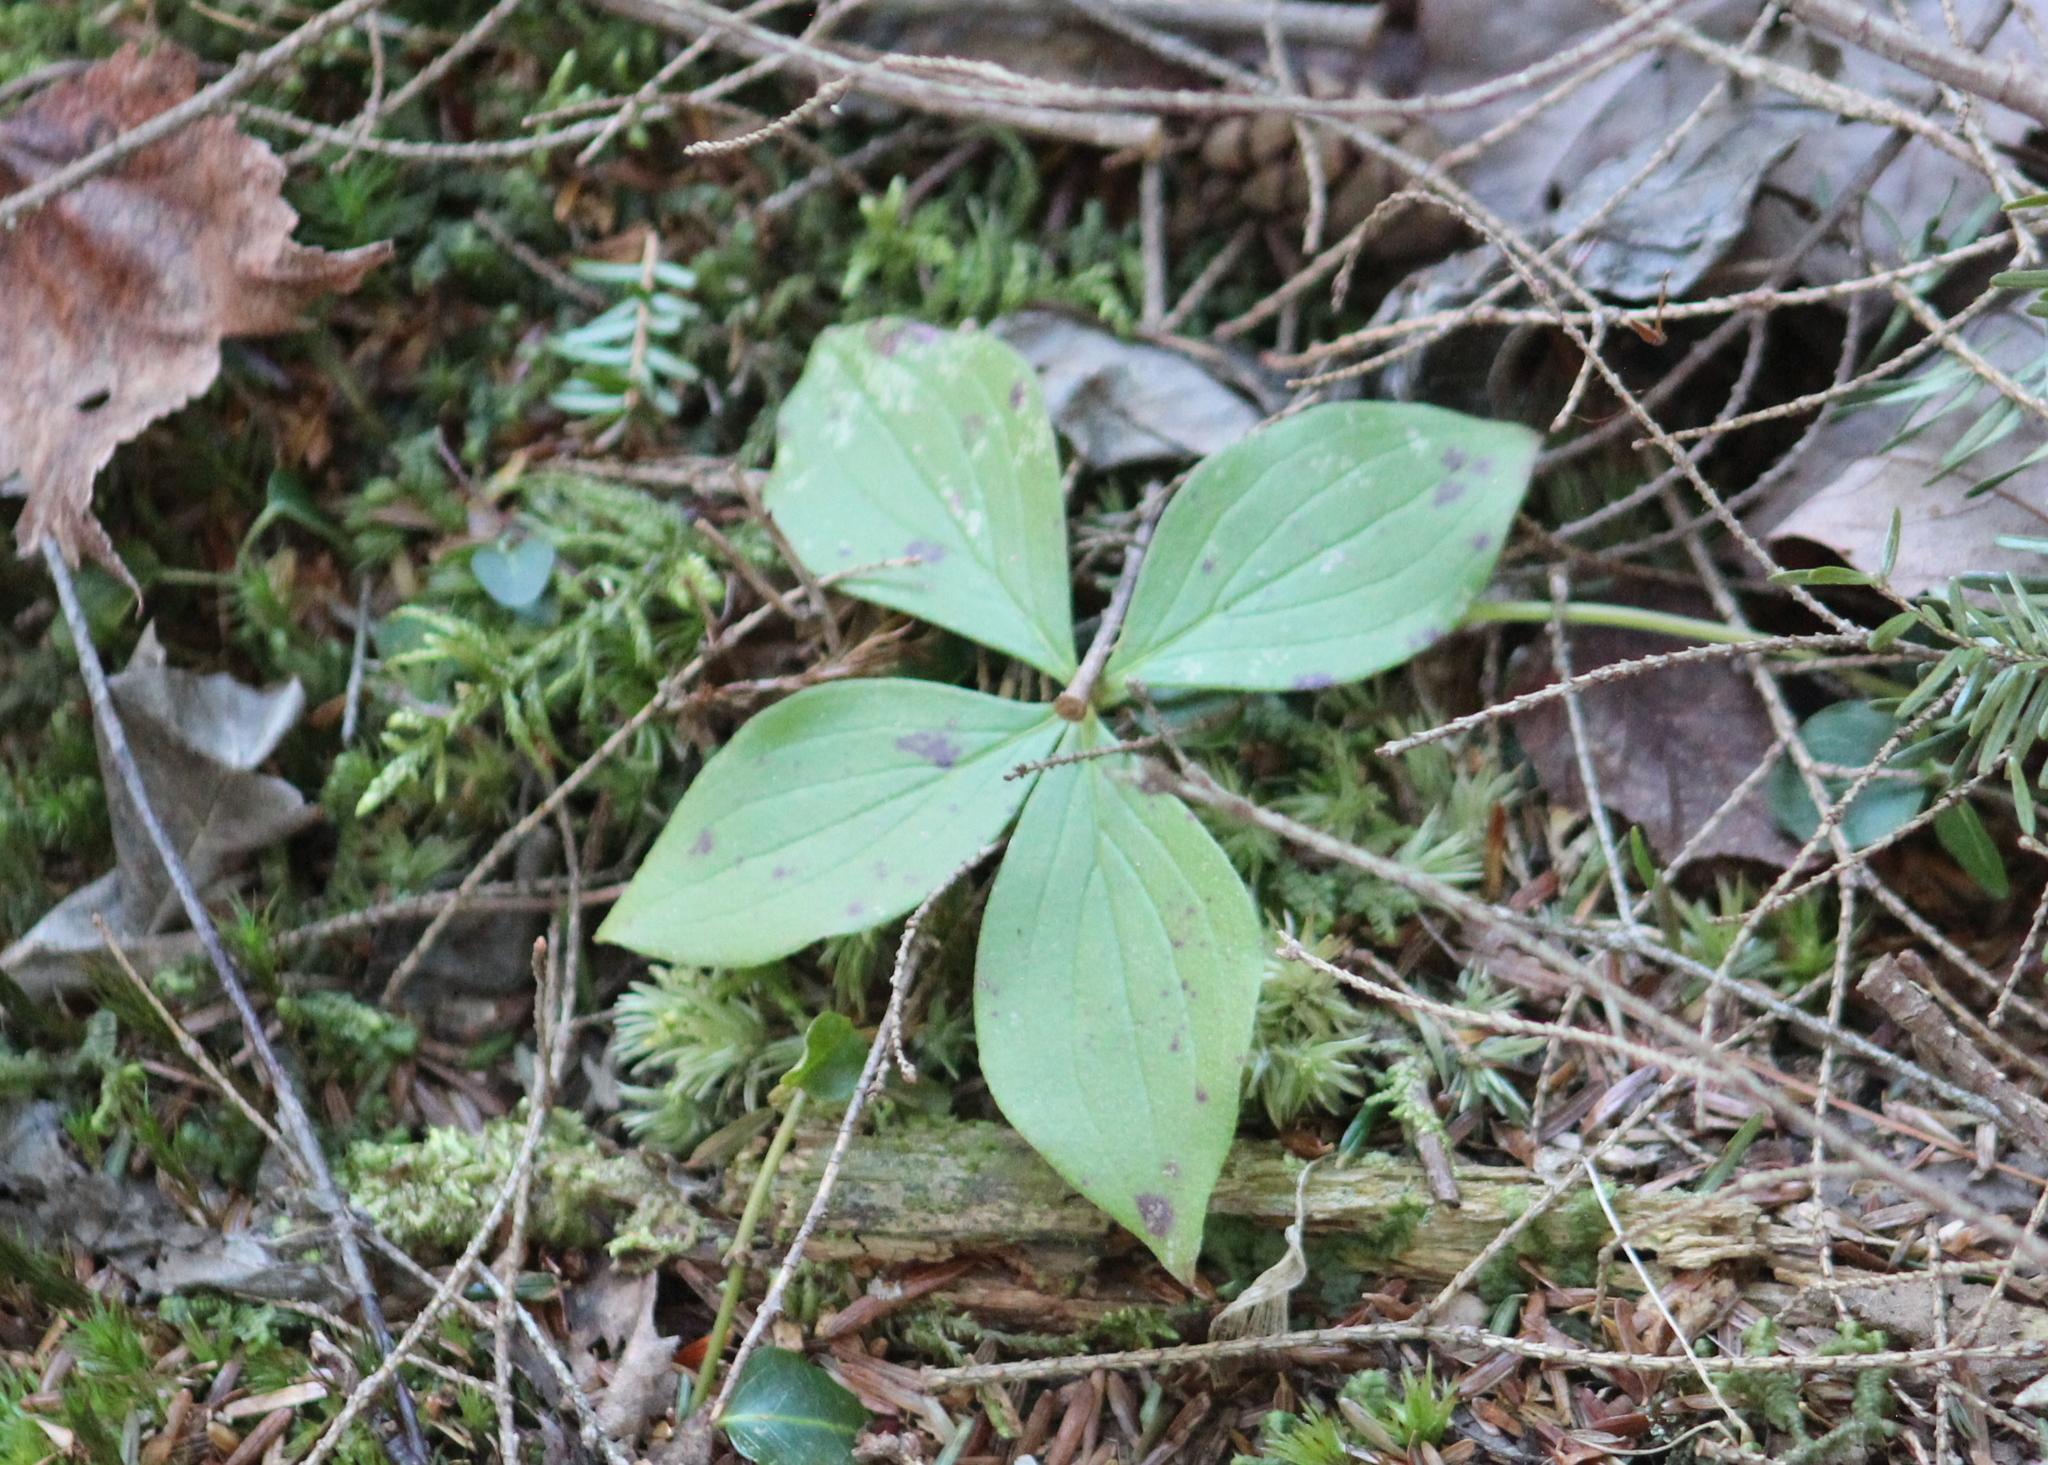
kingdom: Plantae
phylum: Tracheophyta
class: Magnoliopsida
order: Cornales
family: Cornaceae
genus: Cornus
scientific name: Cornus canadensis
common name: Creeping dogwood
